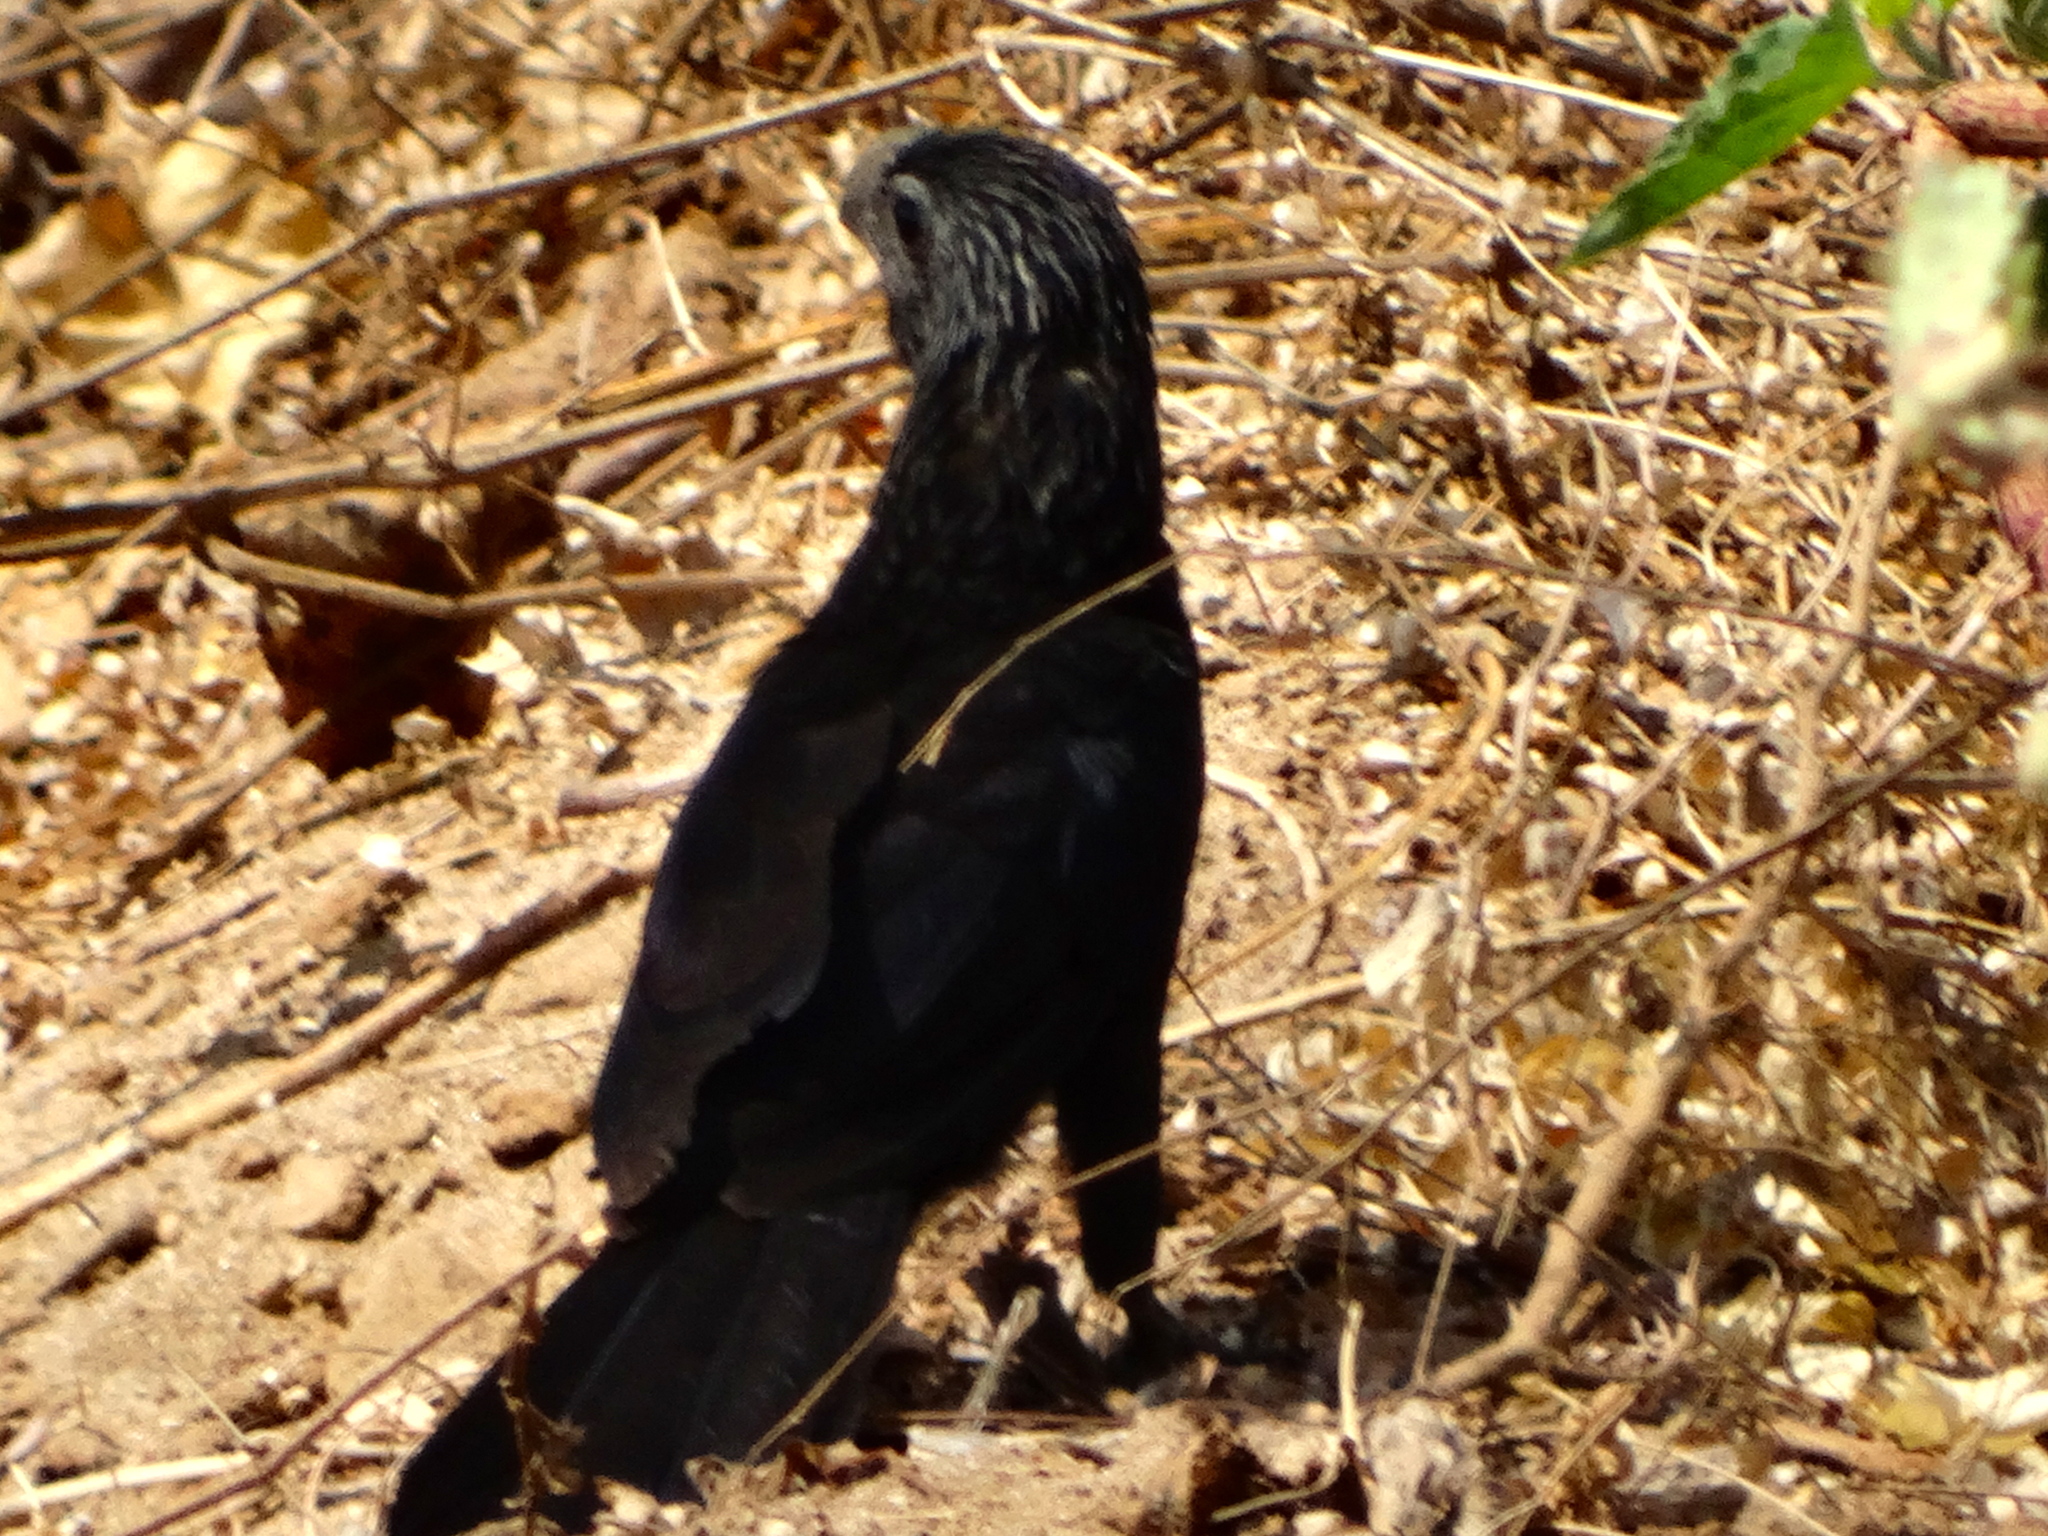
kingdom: Animalia
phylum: Chordata
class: Aves
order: Cuculiformes
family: Cuculidae
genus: Crotophaga
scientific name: Crotophaga sulcirostris
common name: Groove-billed ani
